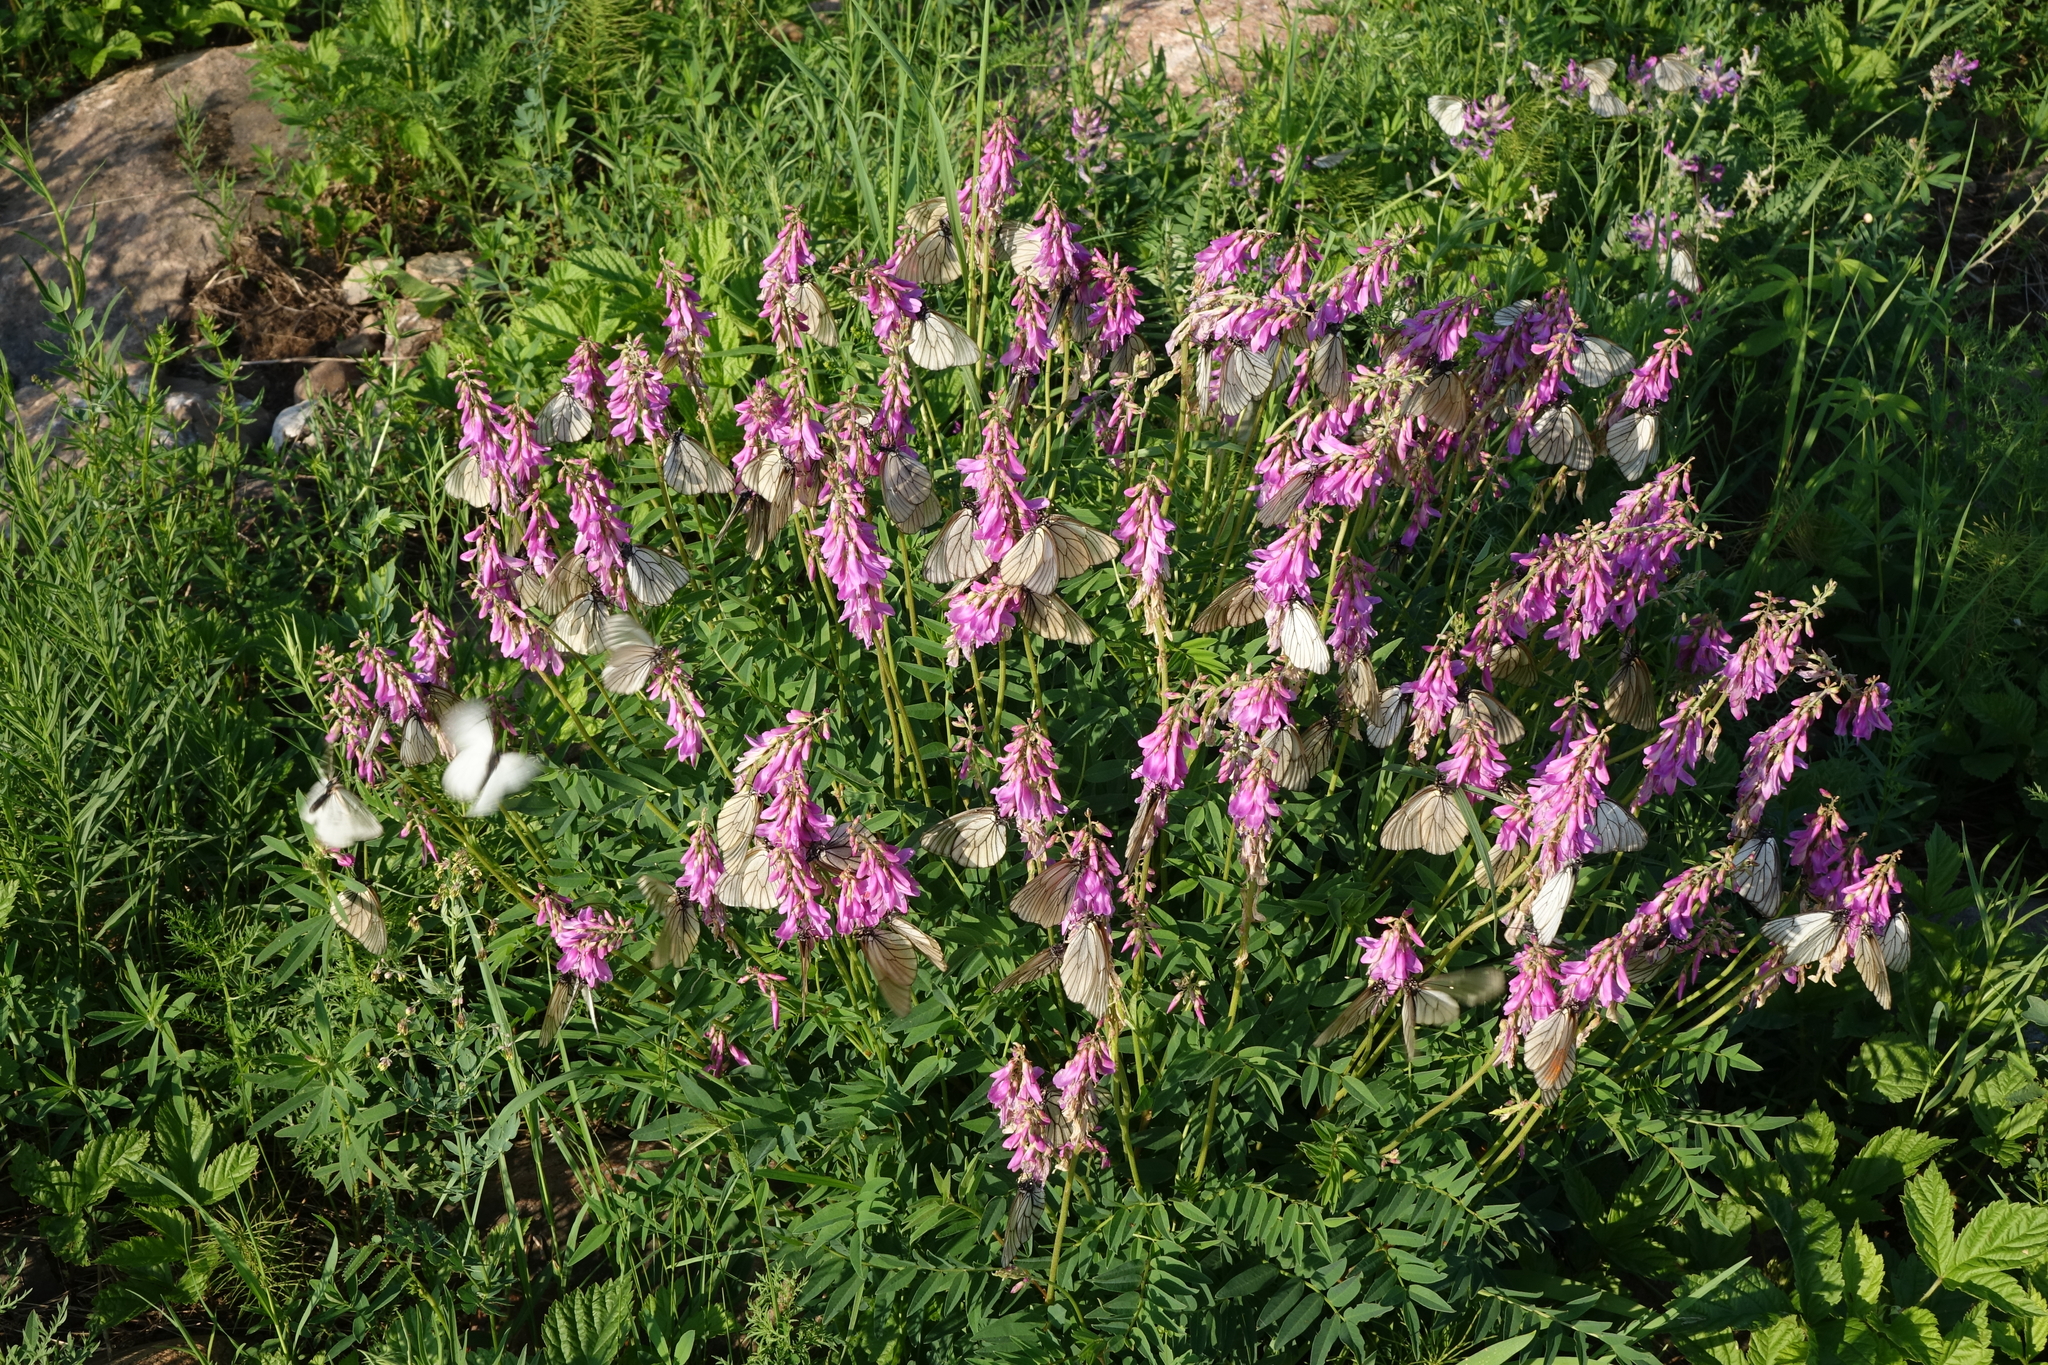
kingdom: Plantae
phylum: Tracheophyta
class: Magnoliopsida
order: Fabales
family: Fabaceae
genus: Hedysarum
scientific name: Hedysarum branthii
